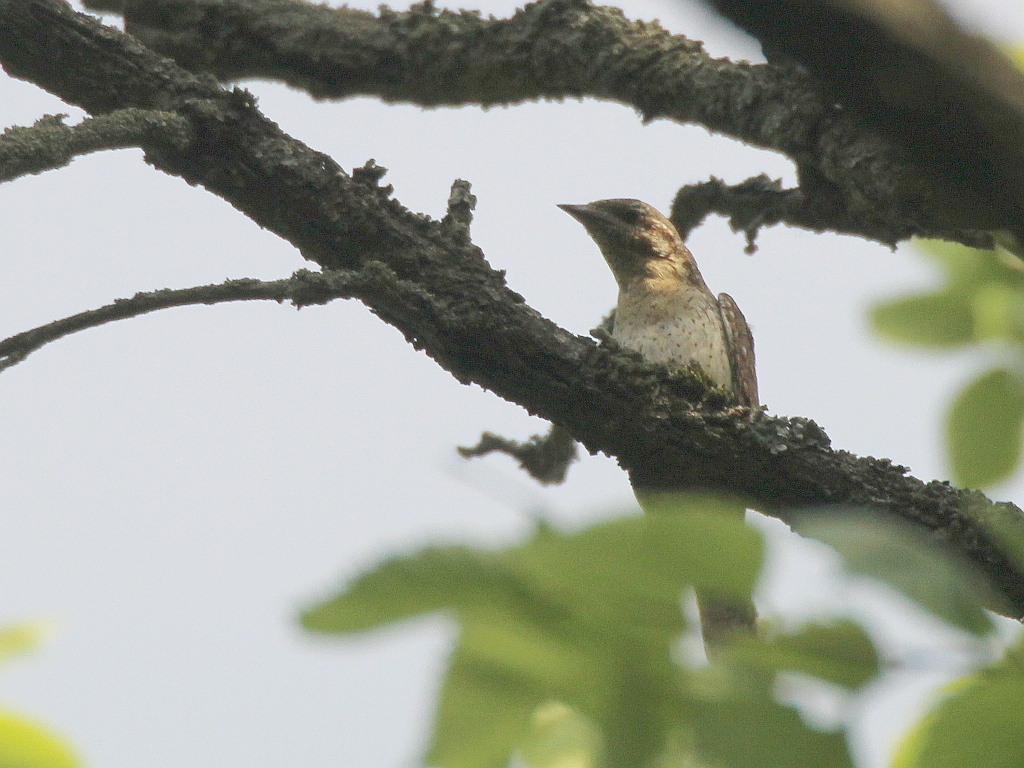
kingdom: Animalia
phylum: Chordata
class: Aves
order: Piciformes
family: Picidae
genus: Jynx
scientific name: Jynx torquilla
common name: Eurasian wryneck
